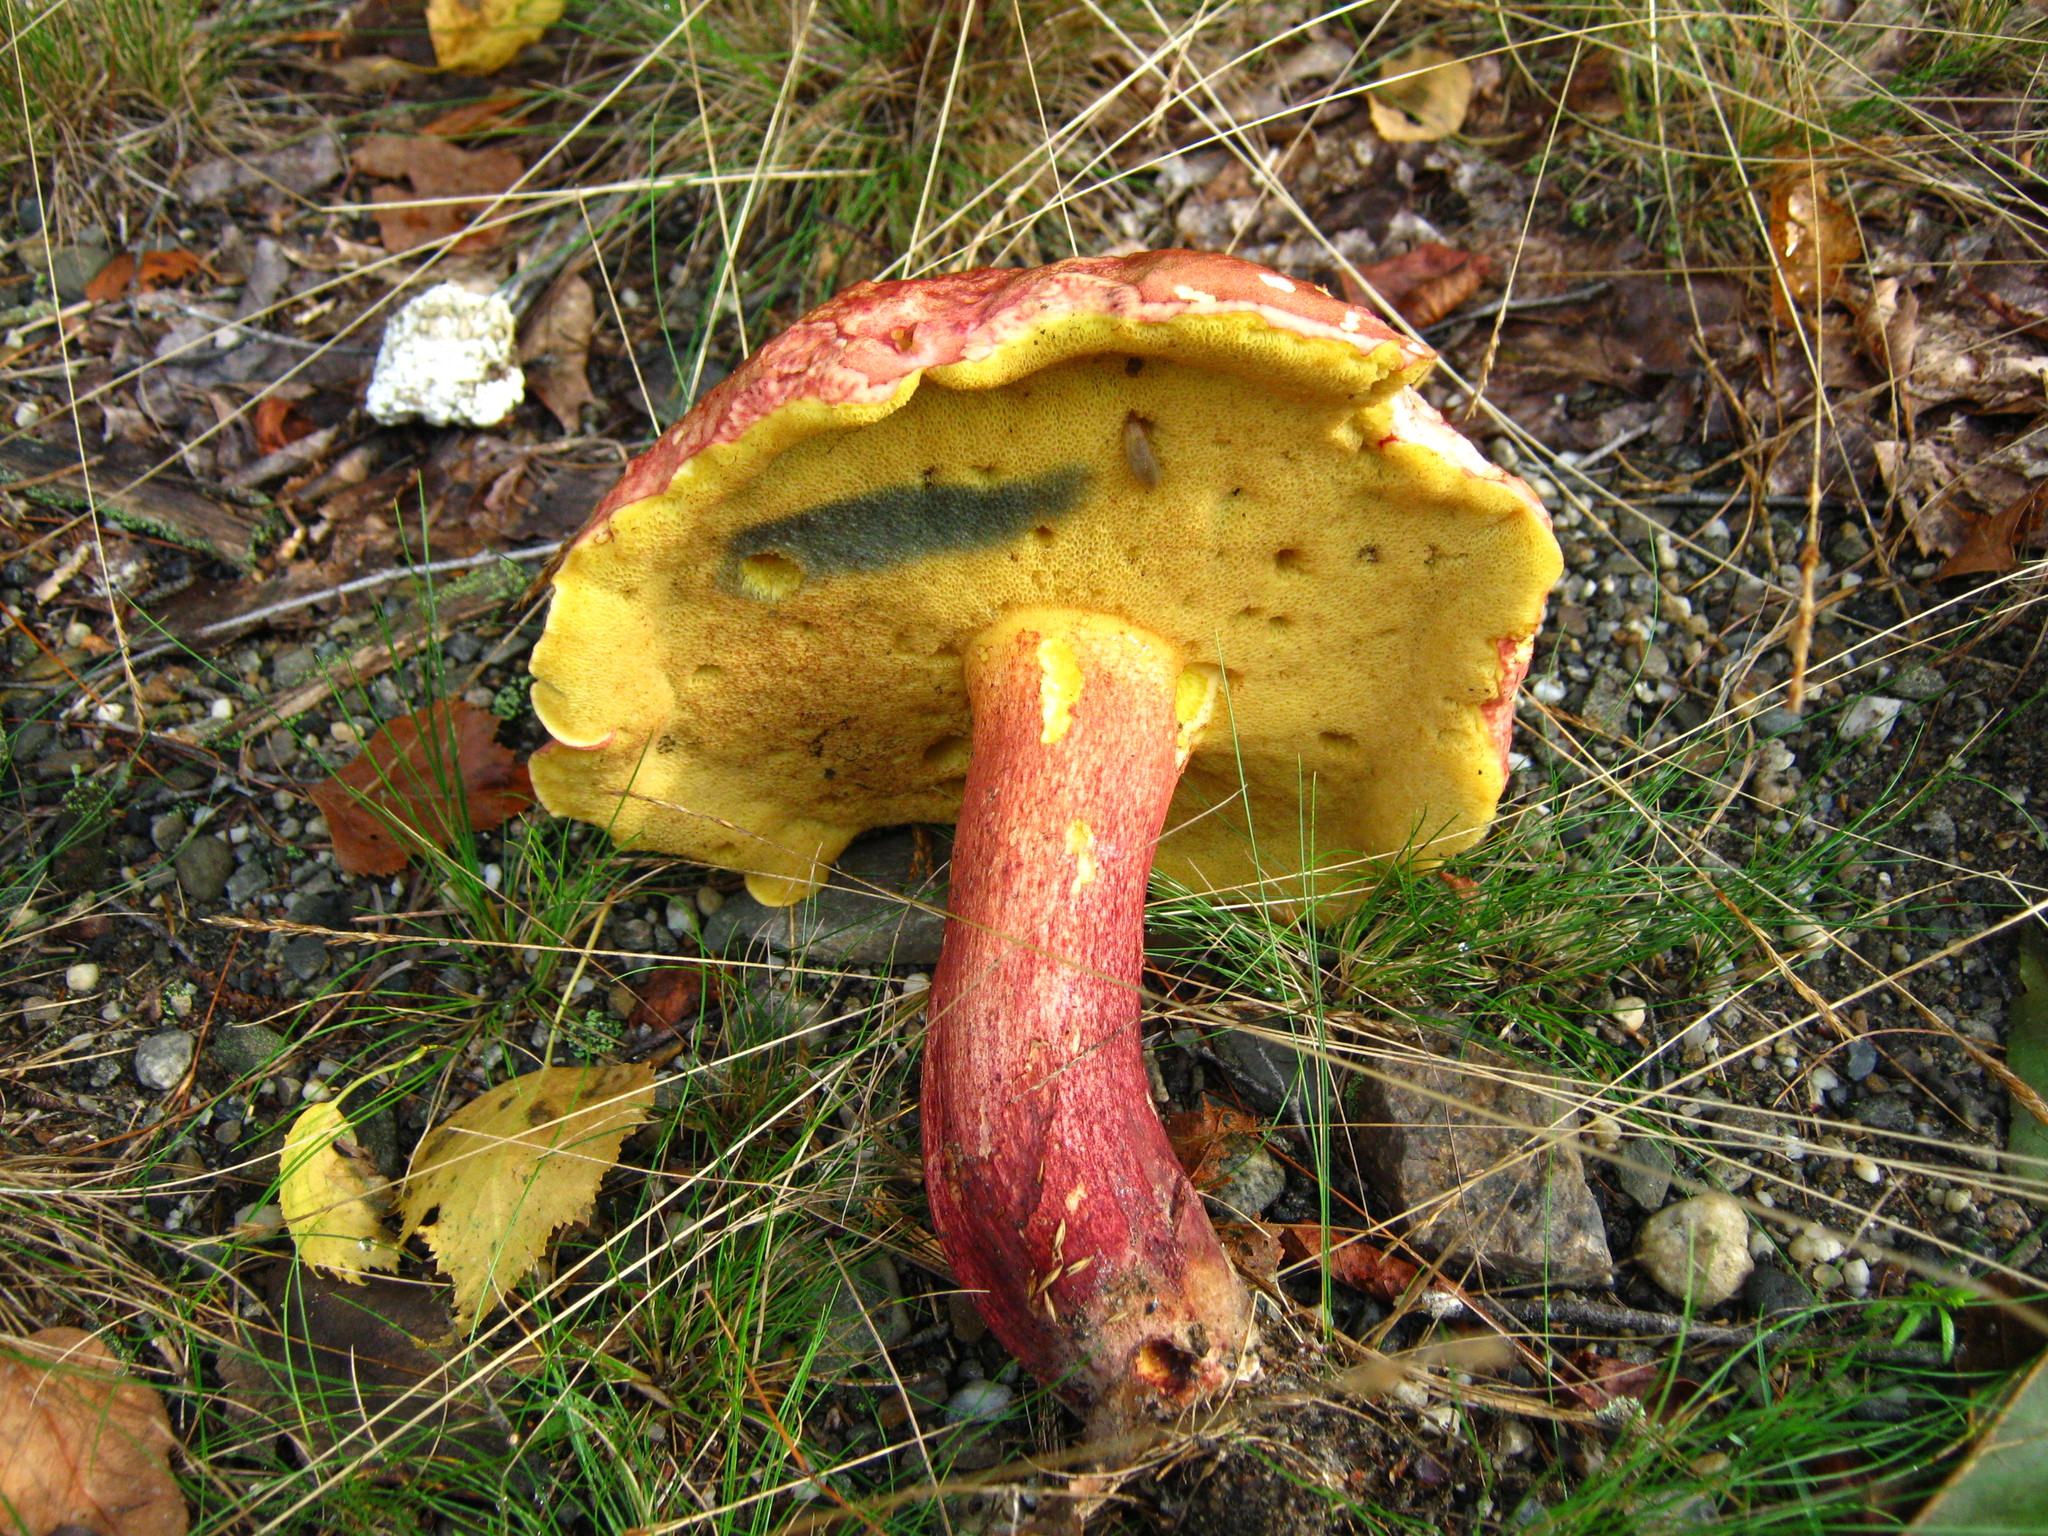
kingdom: Fungi
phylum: Basidiomycota
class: Agaricomycetes
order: Boletales
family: Boletaceae
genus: Baorangia
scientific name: Baorangia bicolor
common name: Two-colored bolete
